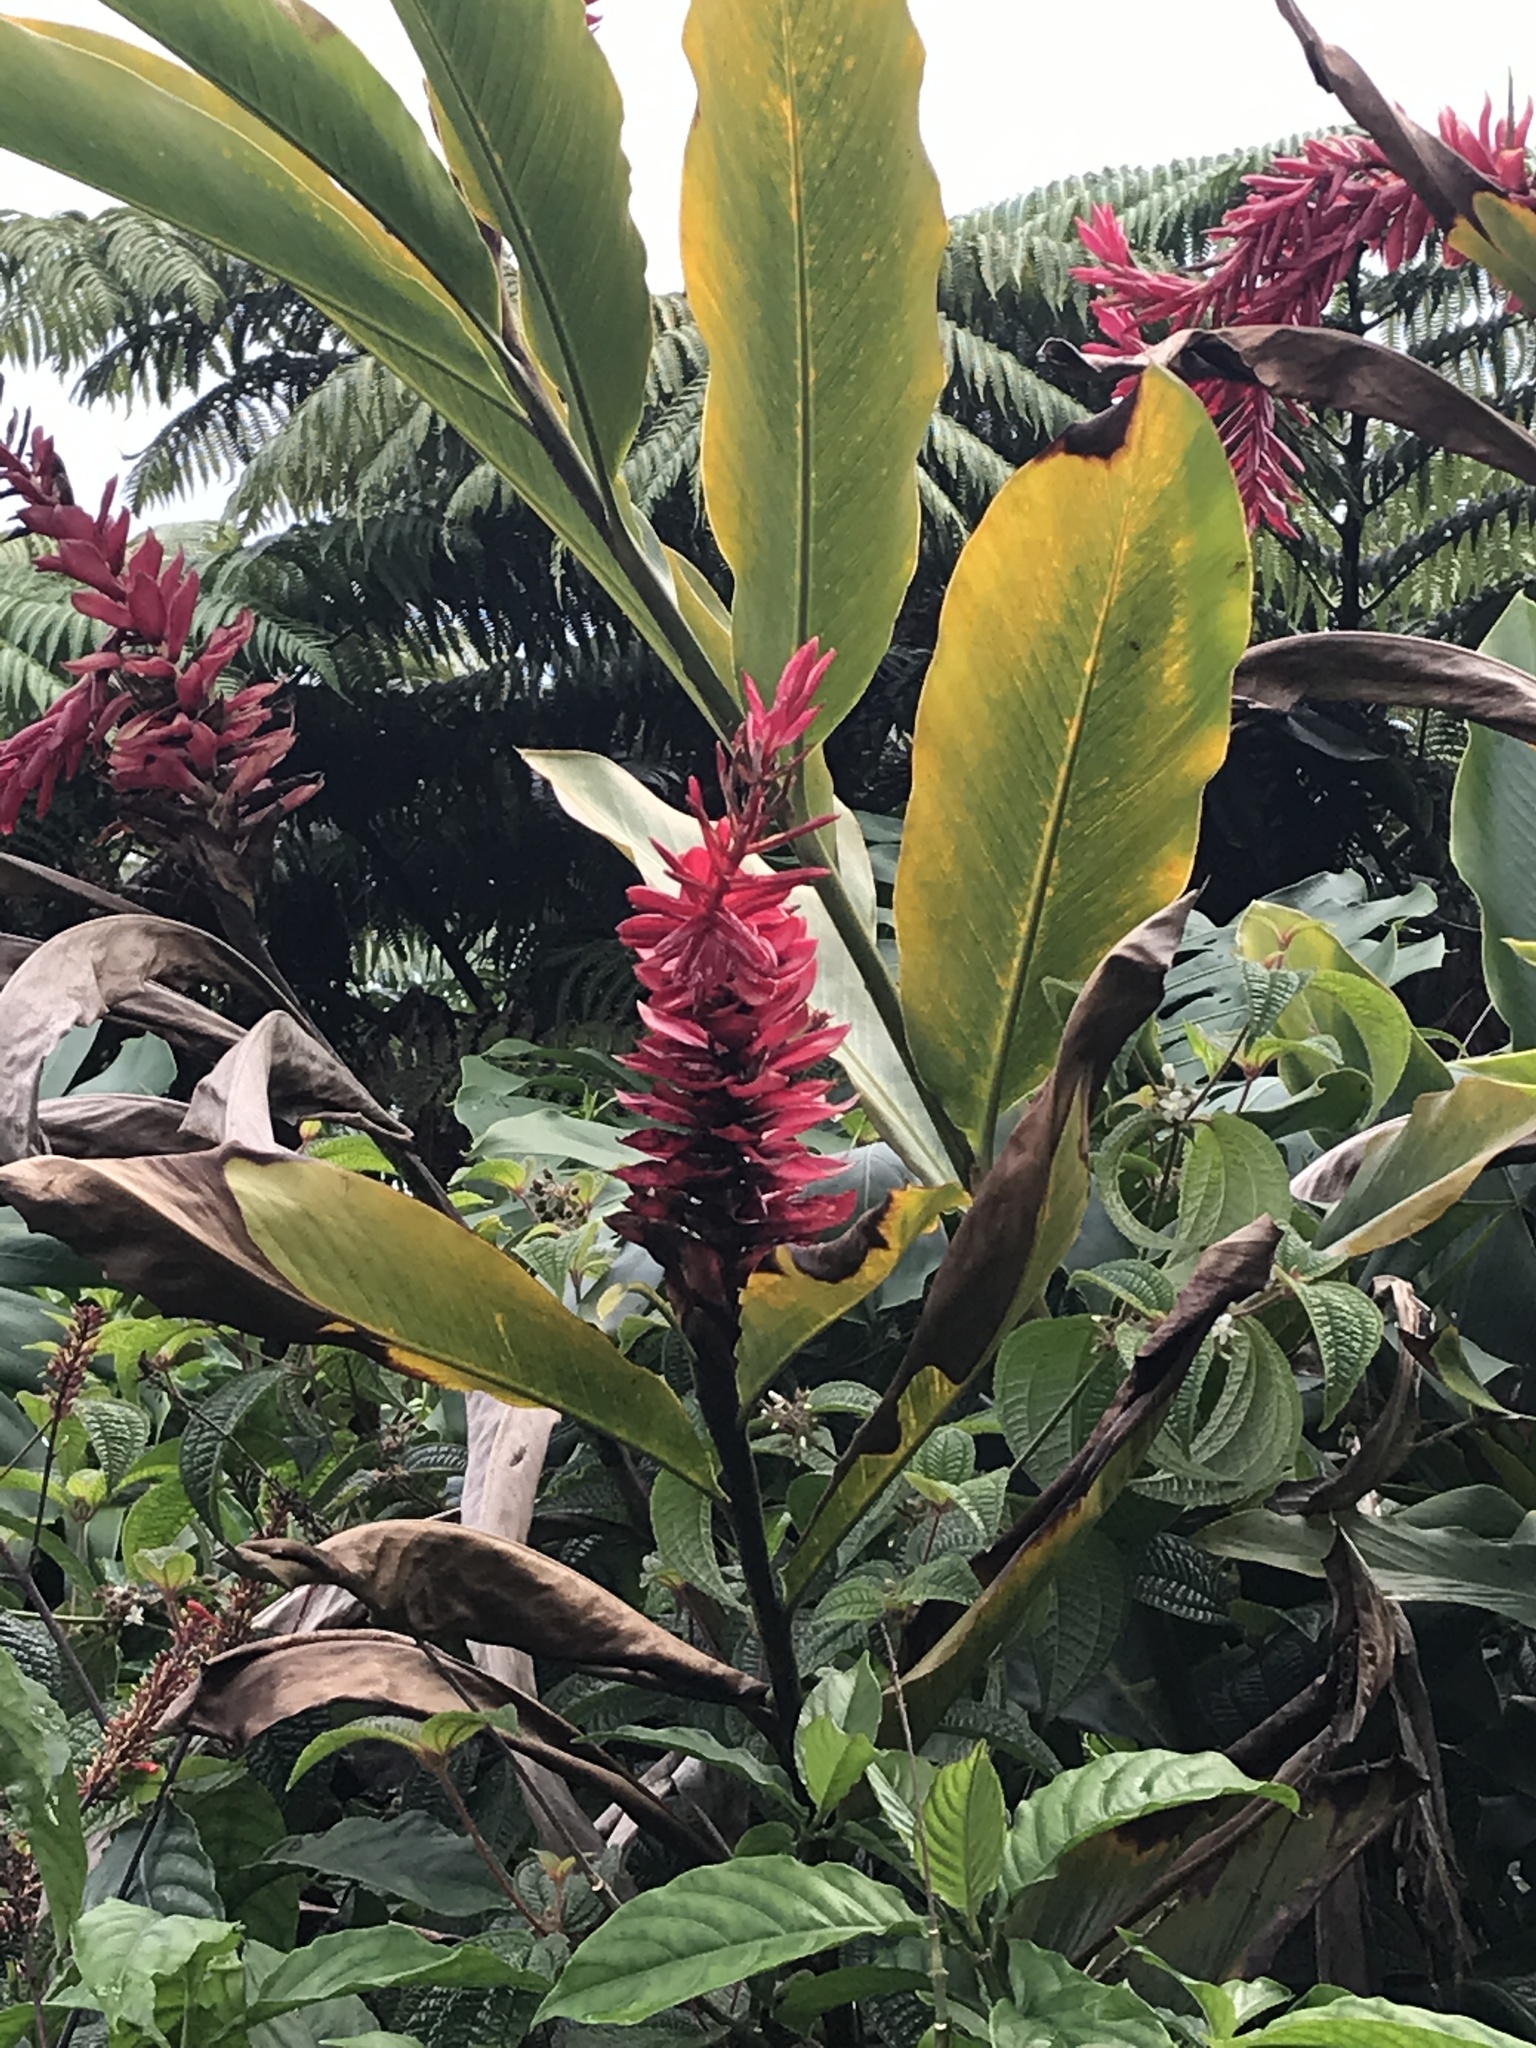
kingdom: Plantae
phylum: Tracheophyta
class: Liliopsida
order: Zingiberales
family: Zingiberaceae
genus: Alpinia
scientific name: Alpinia purpurata
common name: Red ginger
